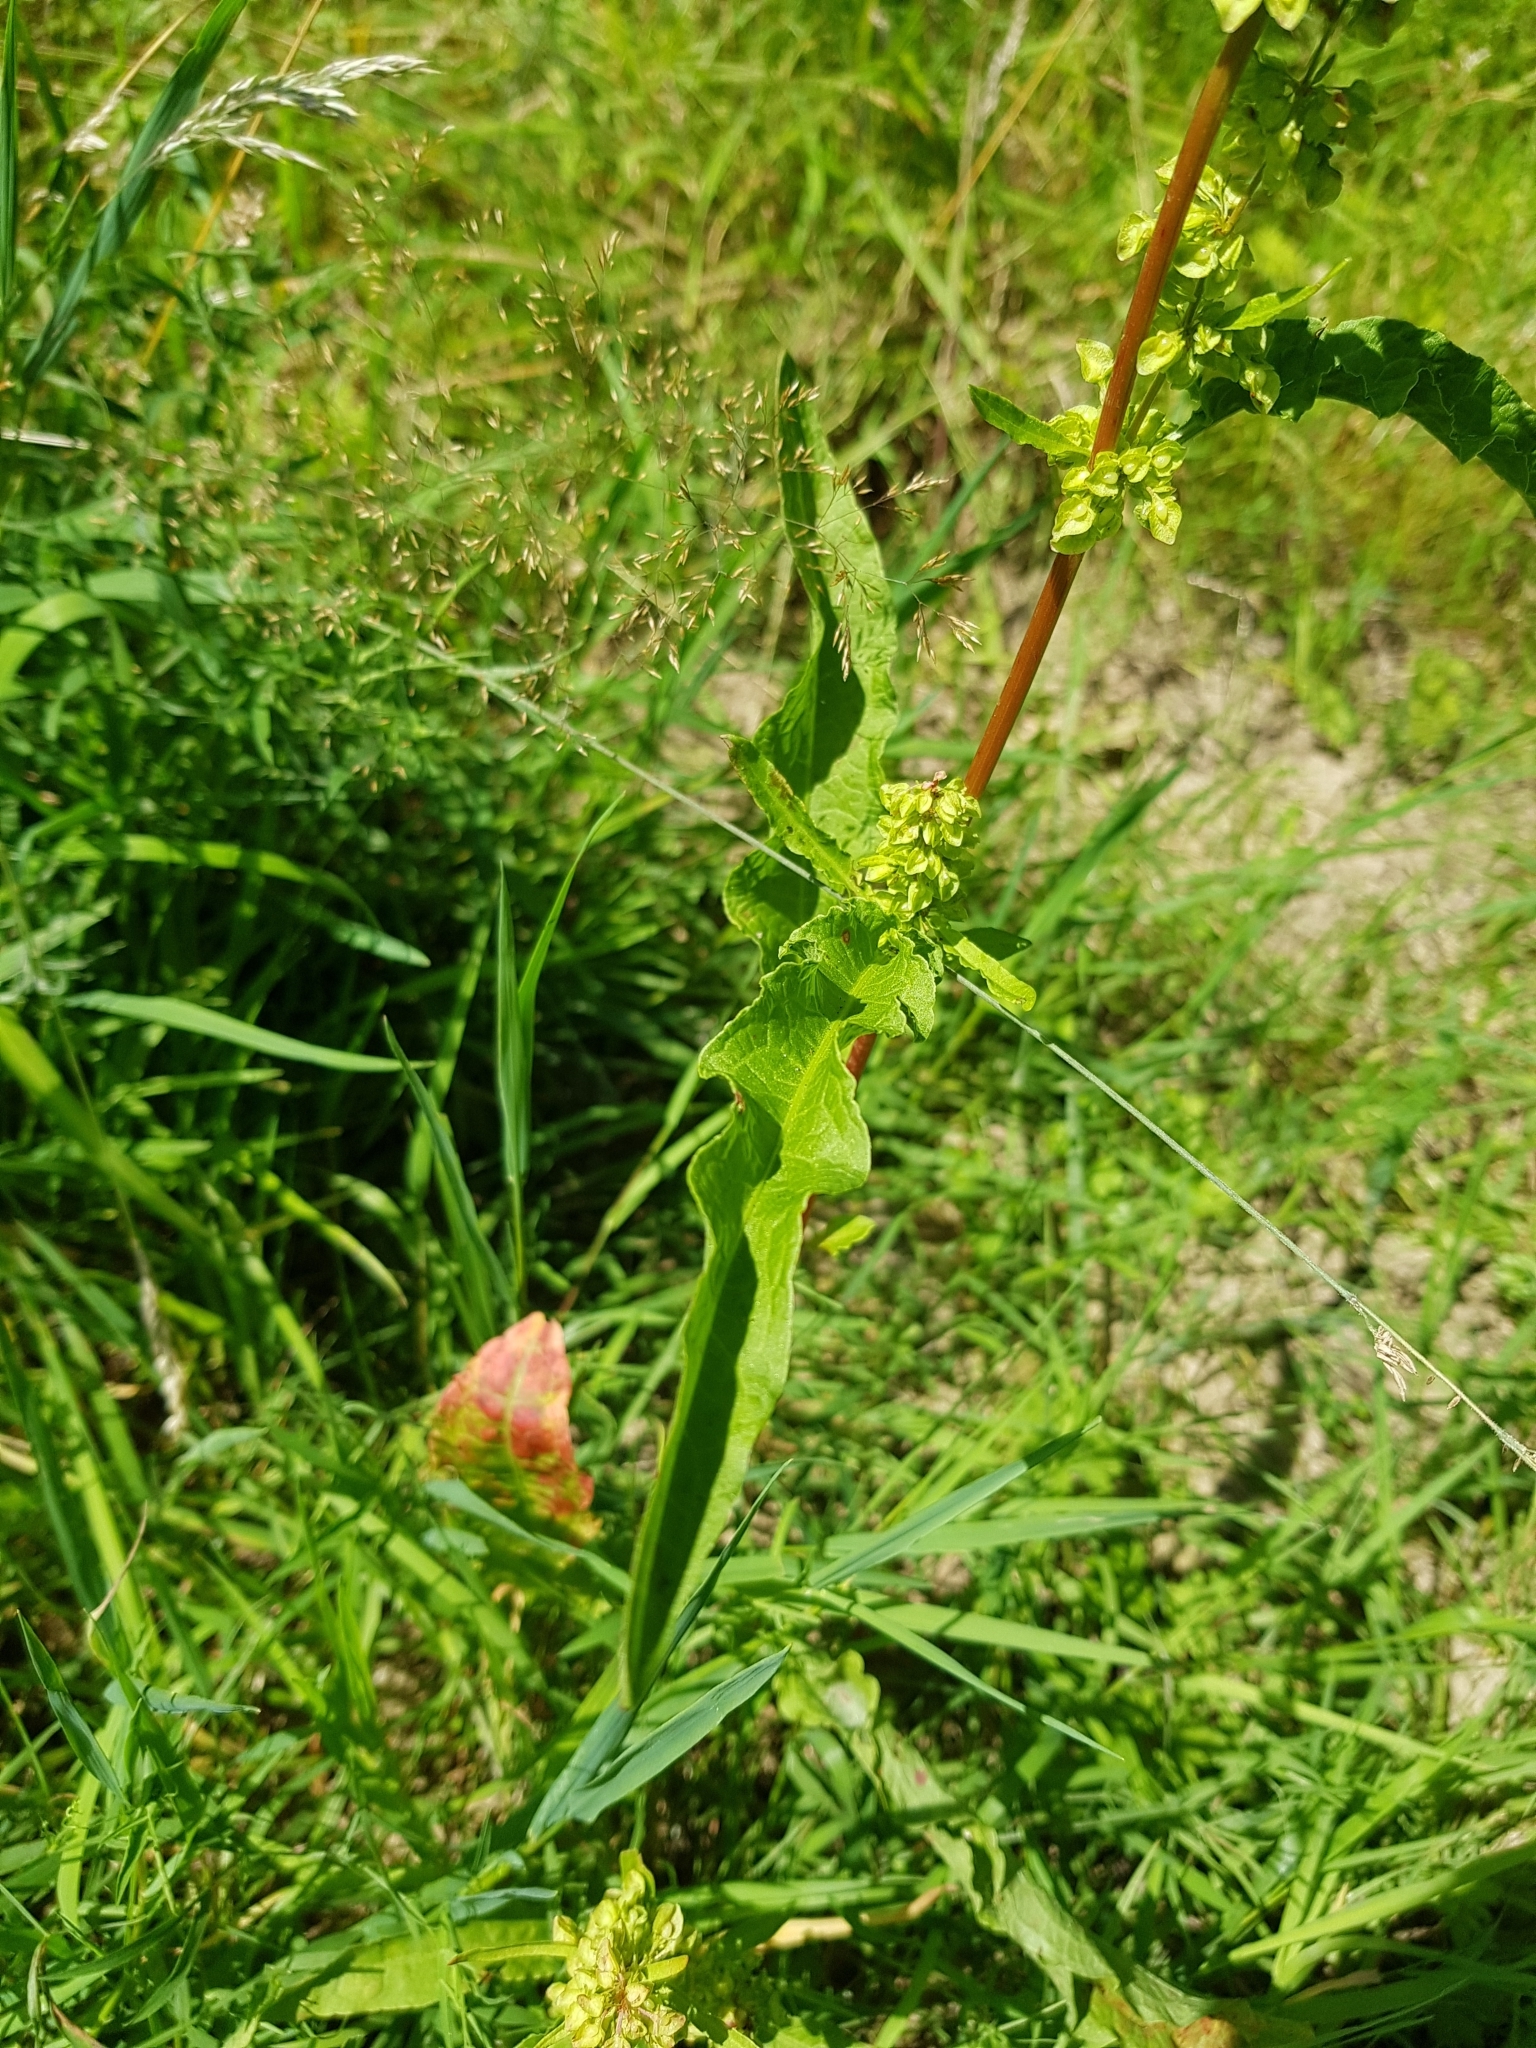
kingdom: Plantae
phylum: Tracheophyta
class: Magnoliopsida
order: Caryophyllales
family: Polygonaceae
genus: Rumex
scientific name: Rumex crispus
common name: Curled dock
